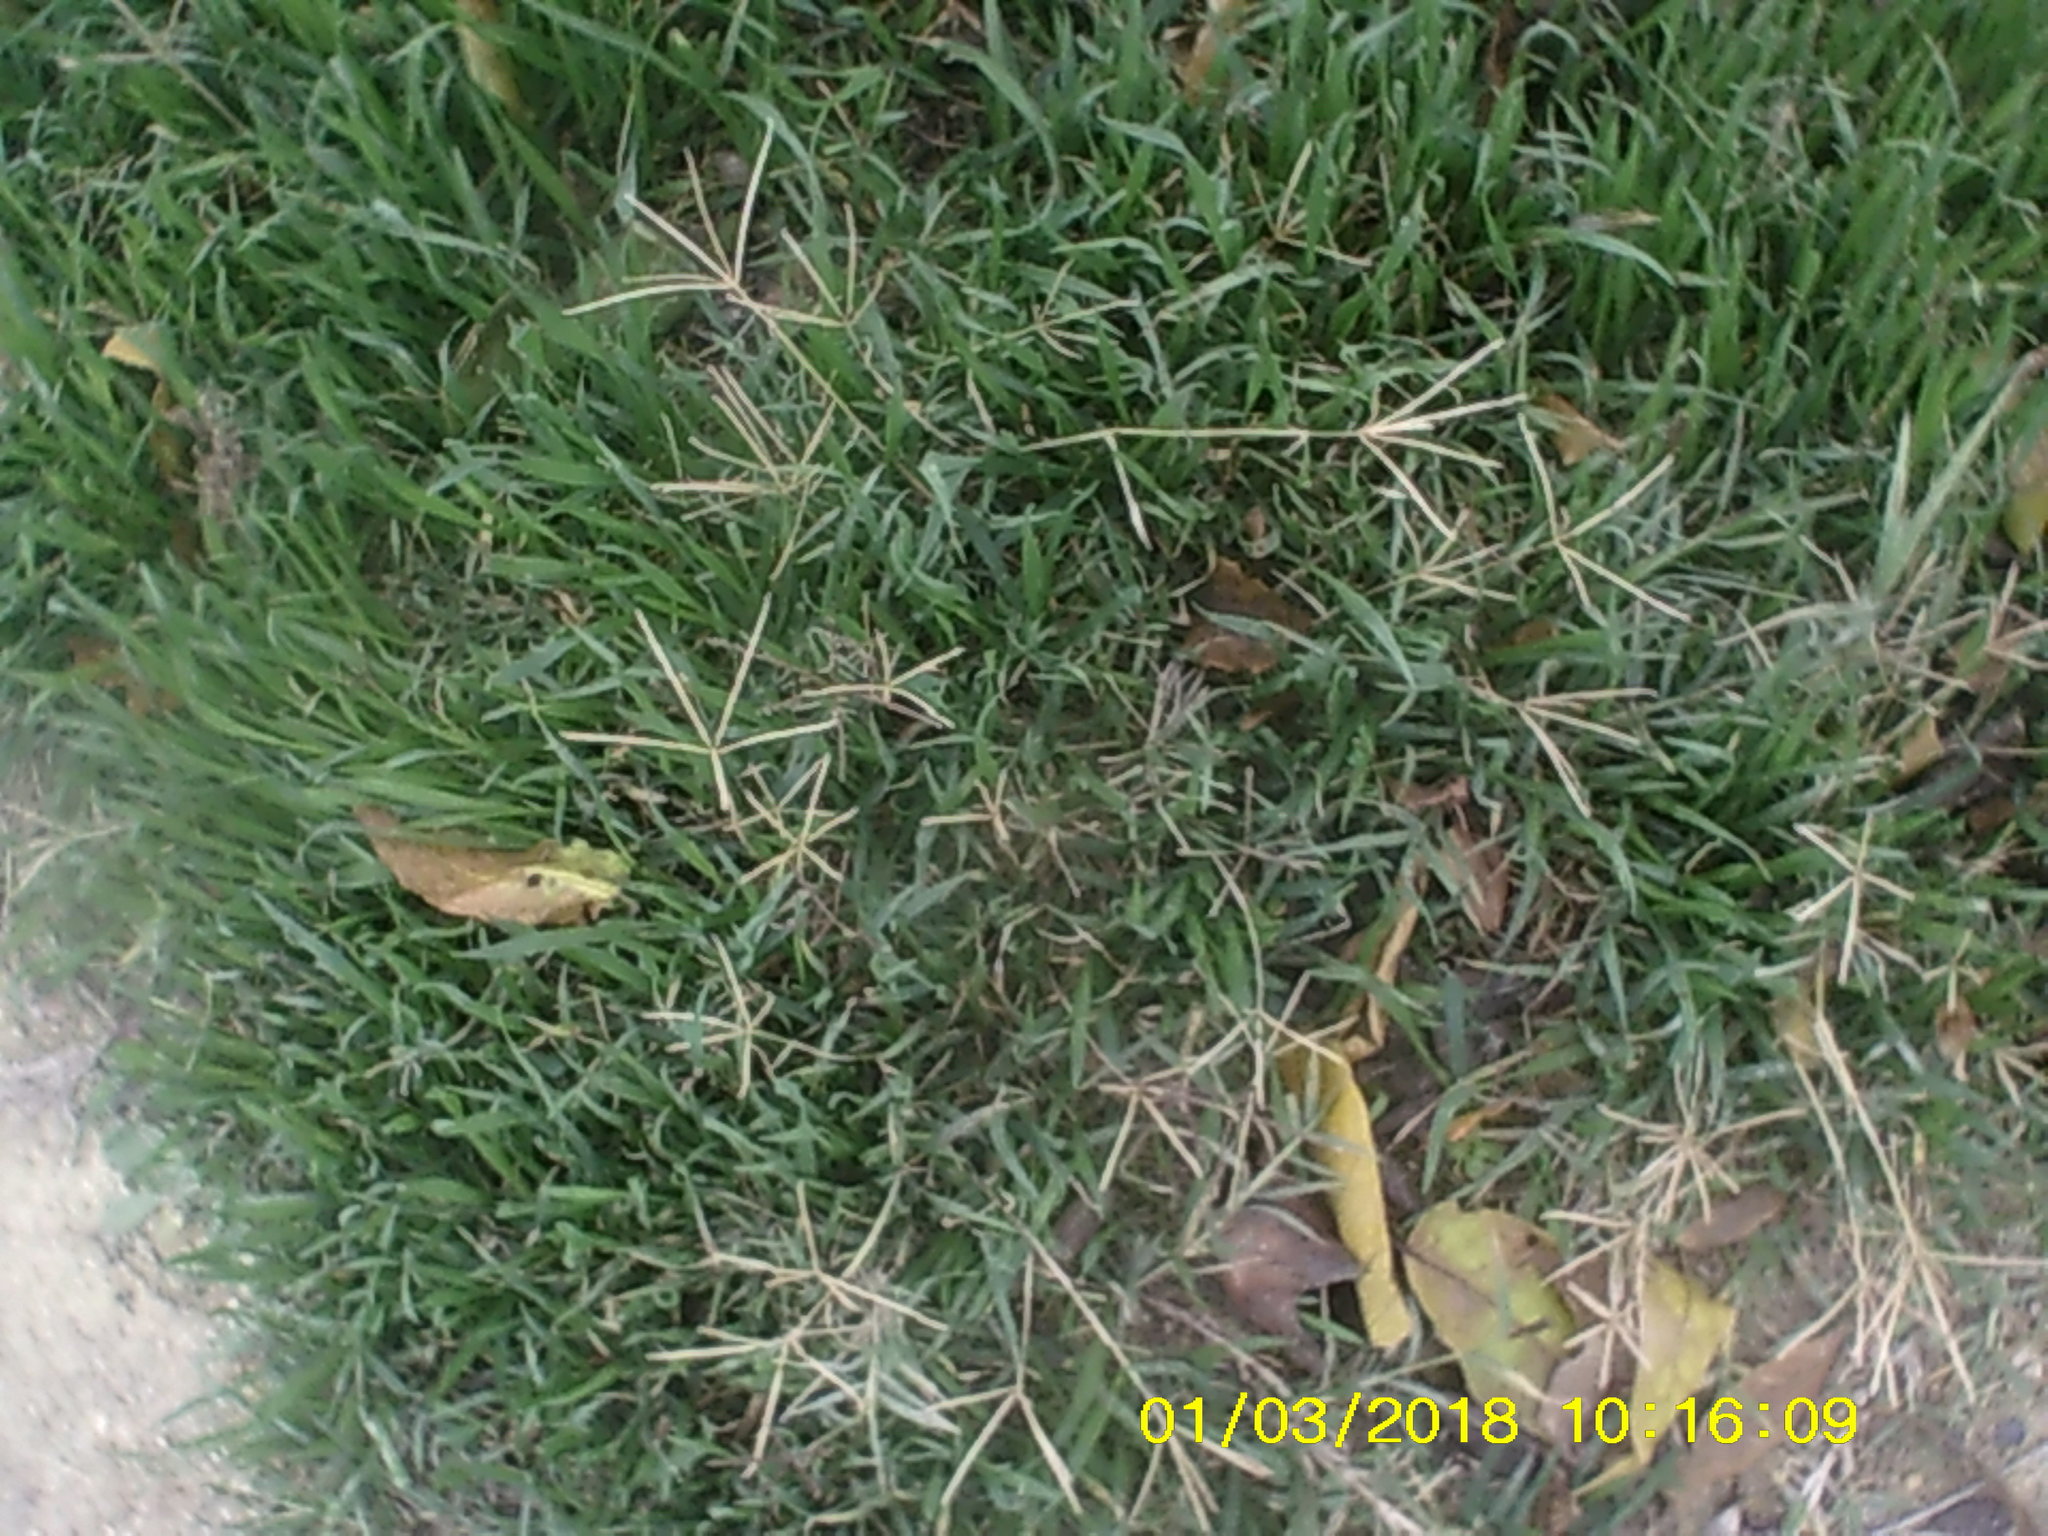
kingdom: Plantae
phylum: Tracheophyta
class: Liliopsida
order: Poales
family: Poaceae
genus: Cynodon
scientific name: Cynodon dactylon
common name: Bermuda grass
